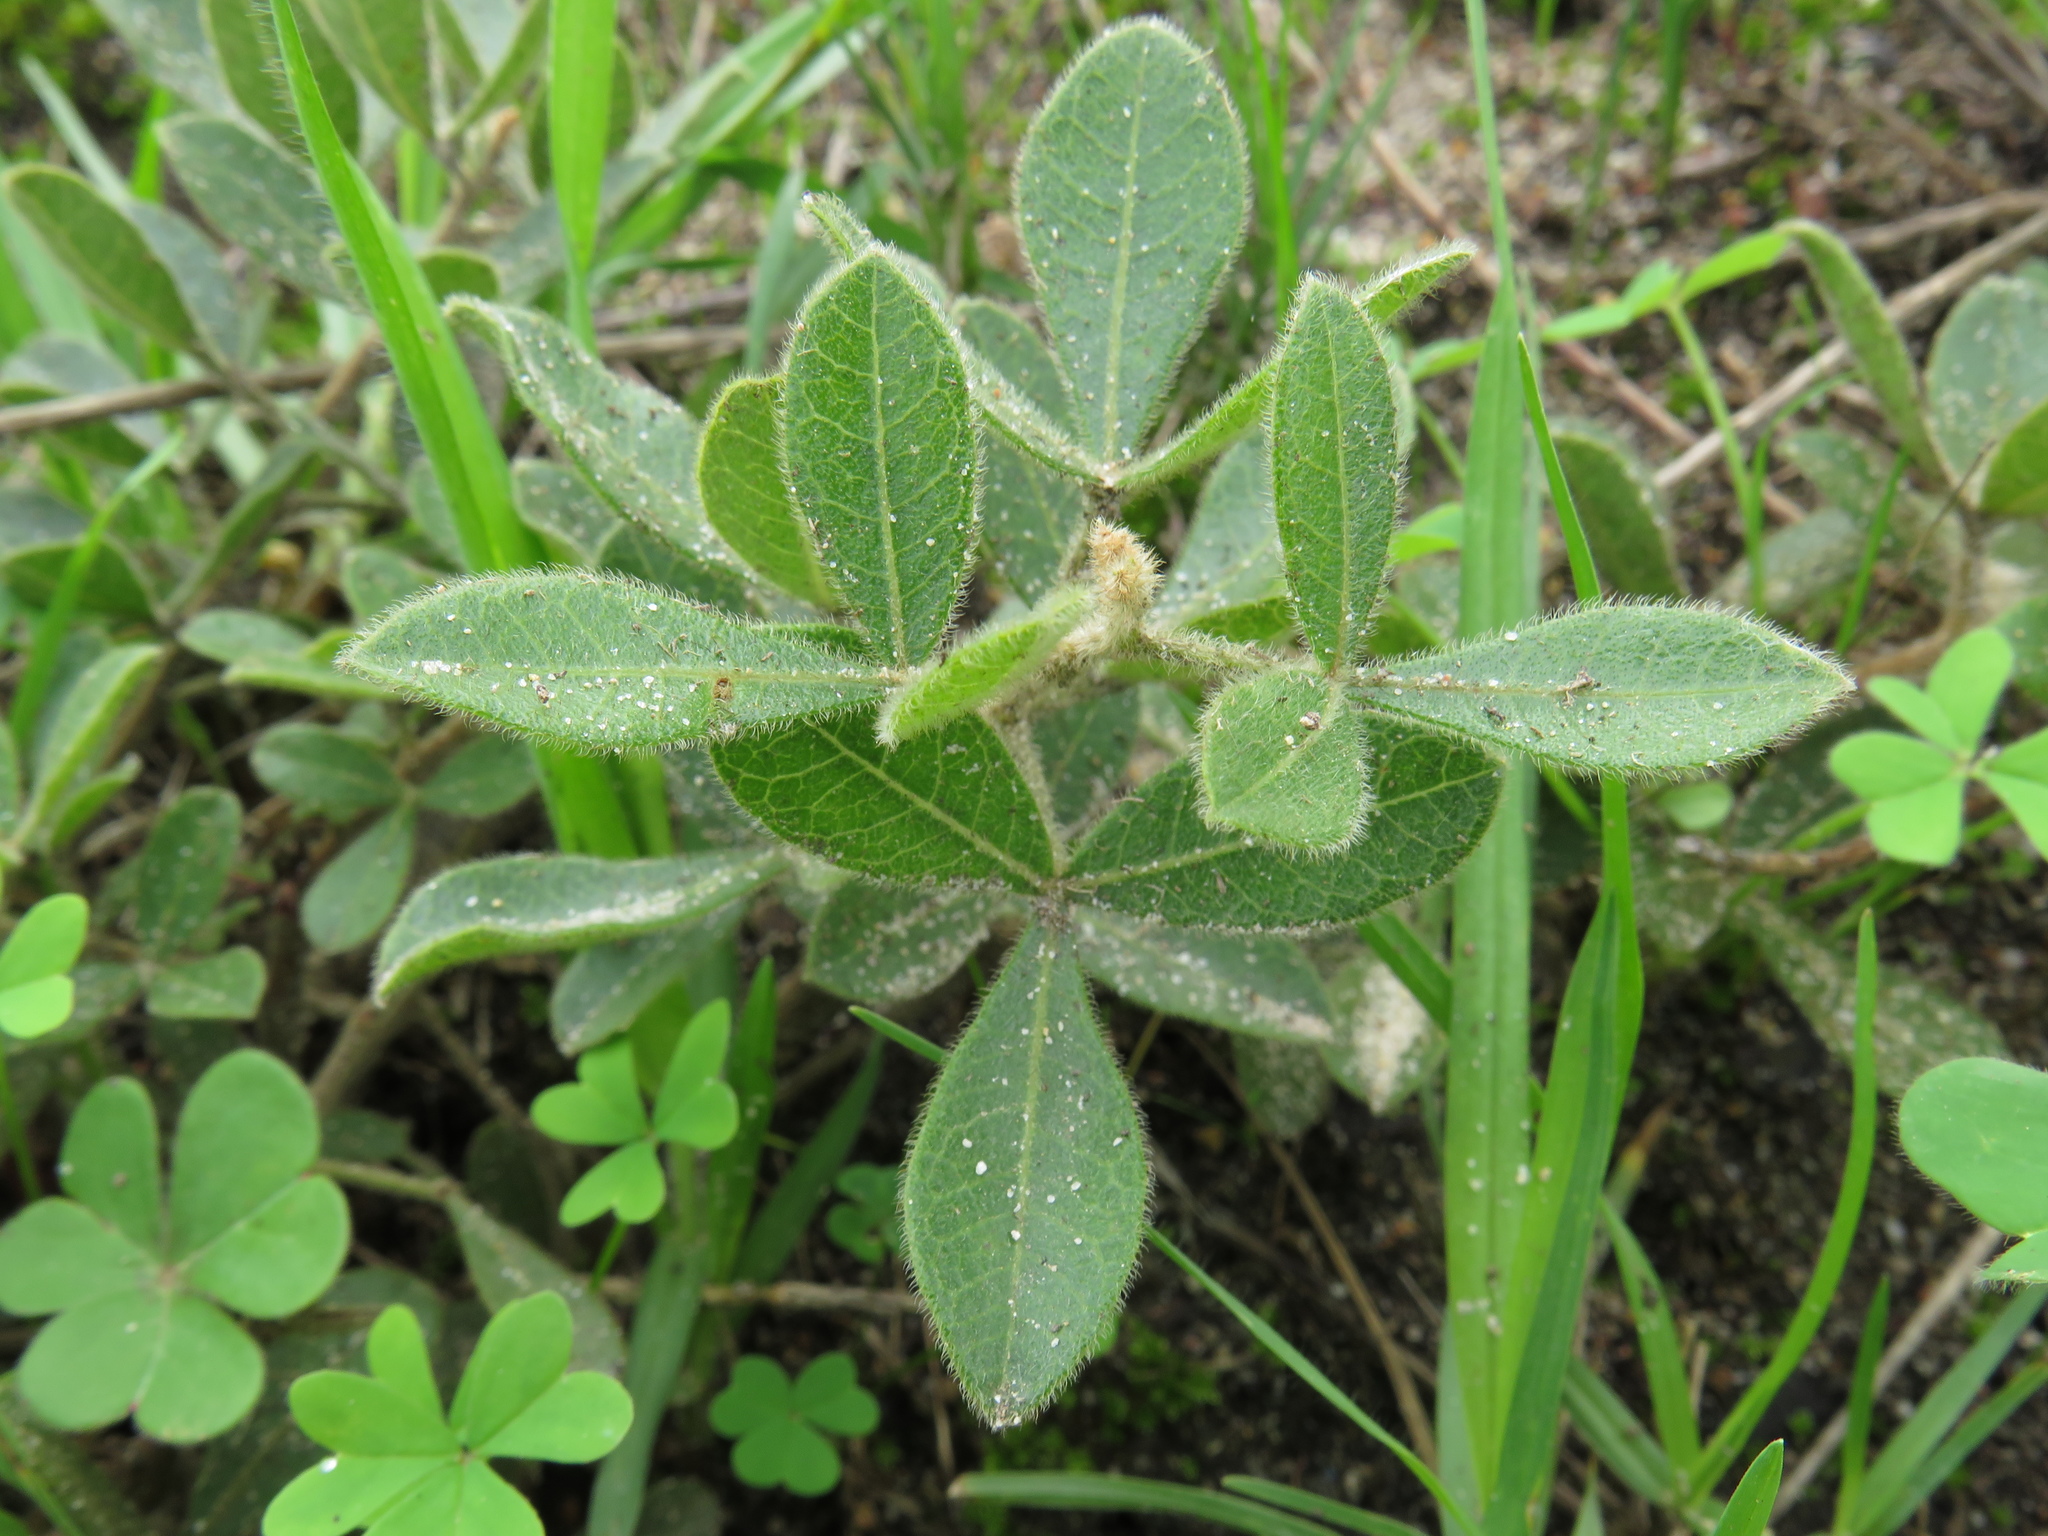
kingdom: Plantae
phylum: Tracheophyta
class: Magnoliopsida
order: Sapindales
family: Anacardiaceae
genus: Searsia
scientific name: Searsia laevigata
